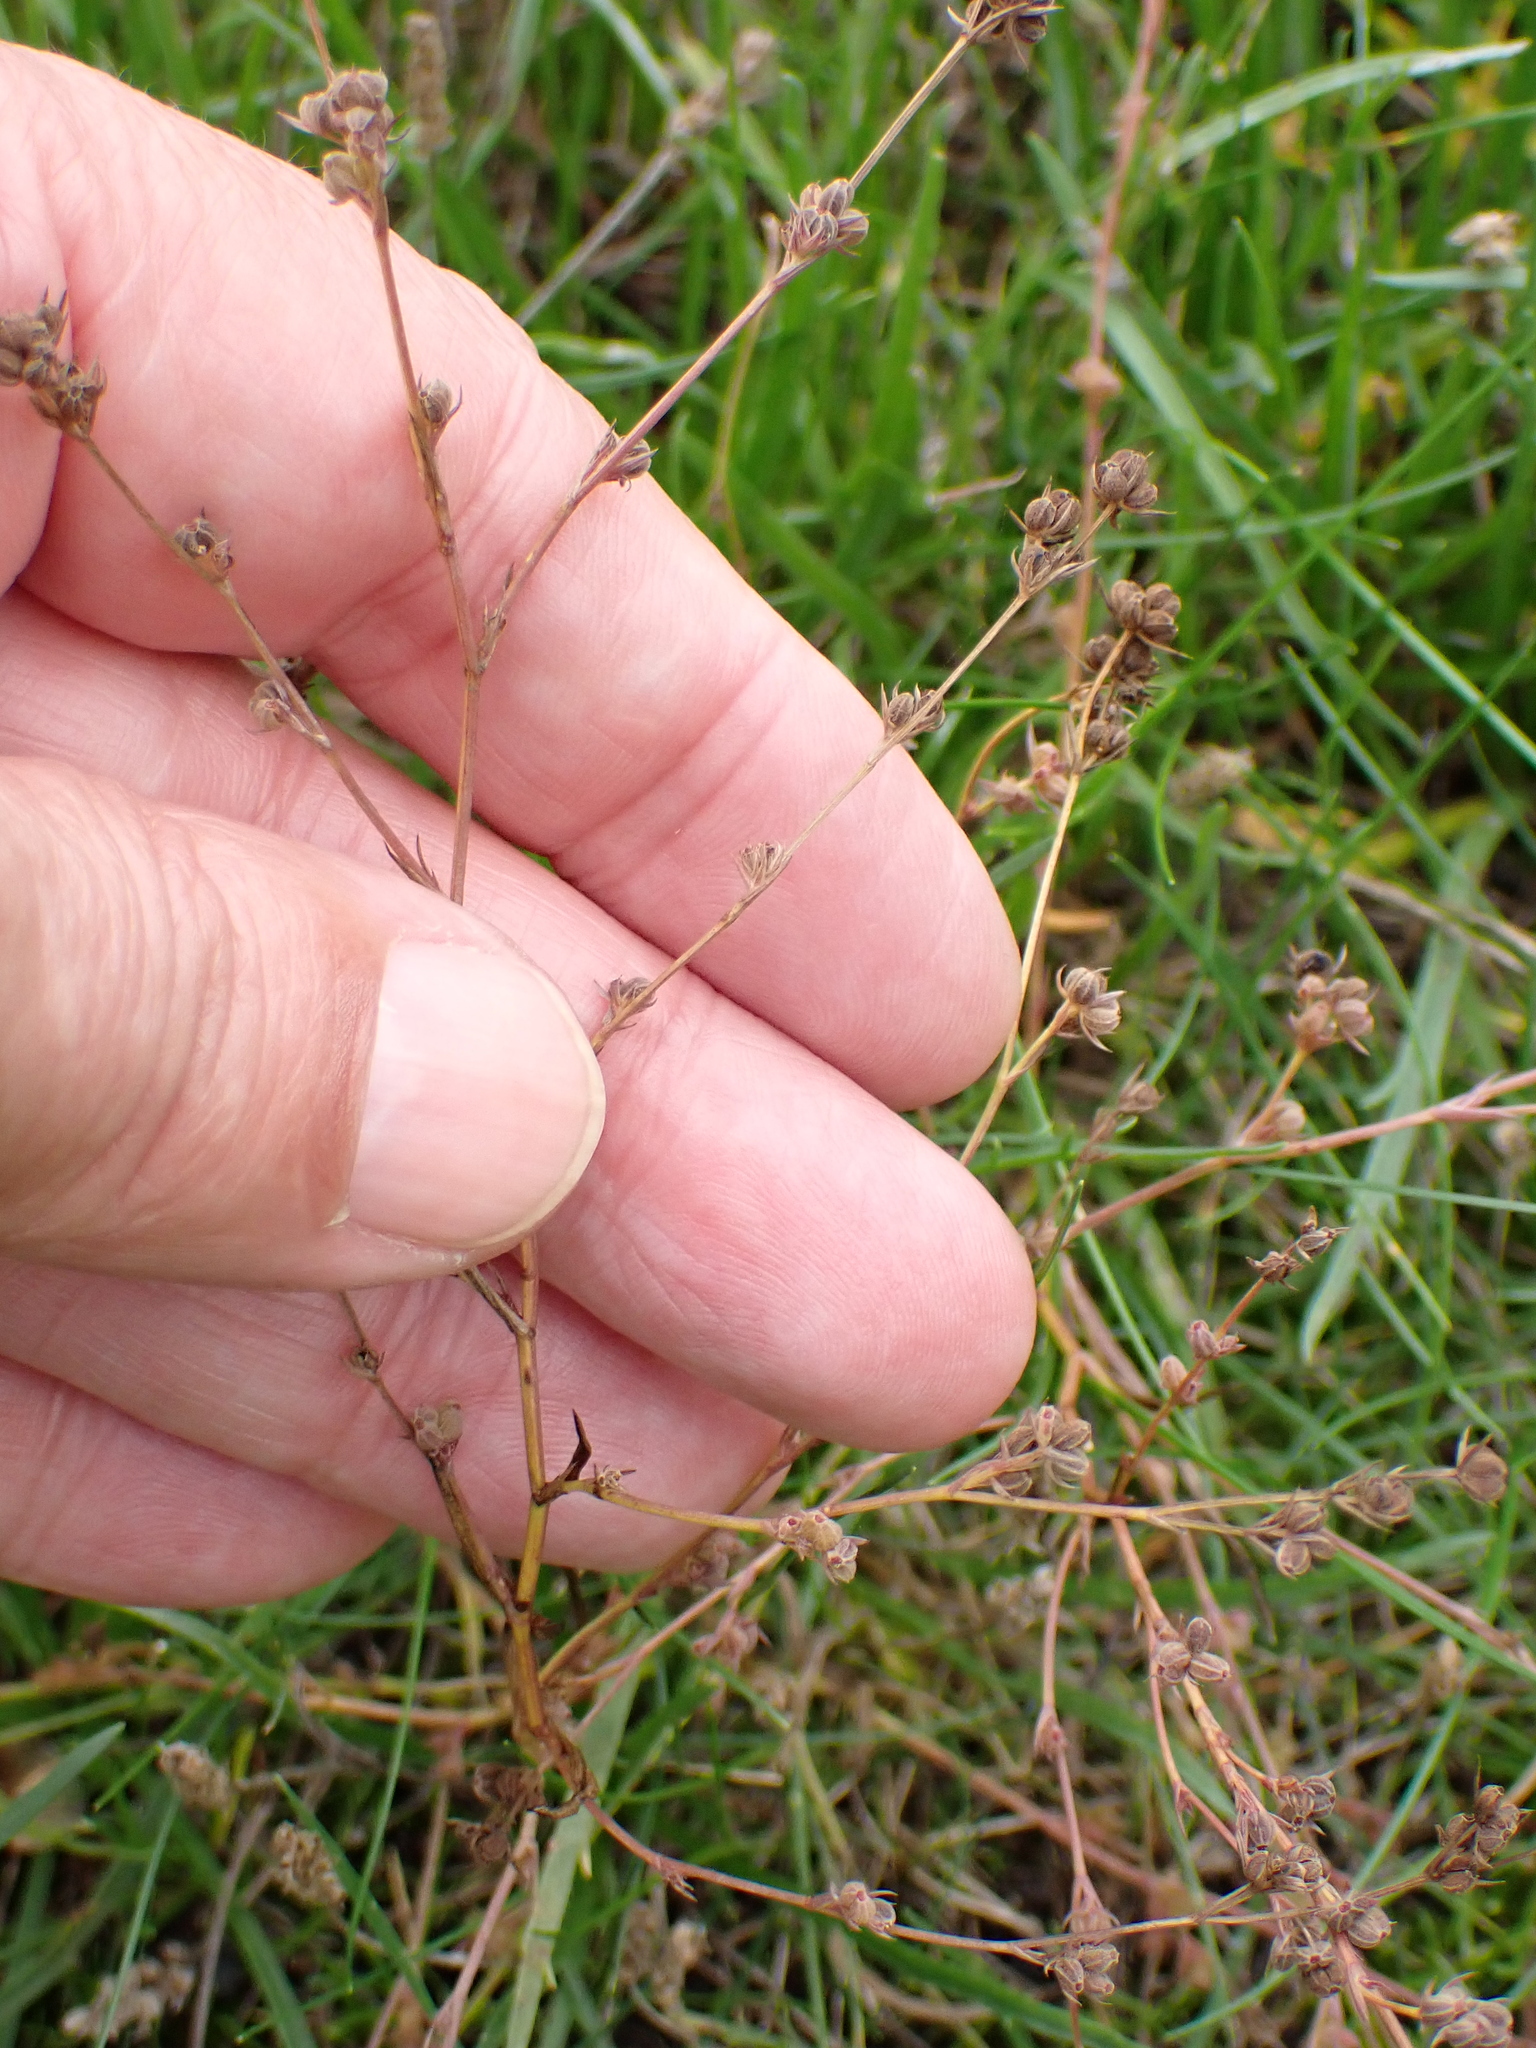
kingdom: Plantae
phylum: Tracheophyta
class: Magnoliopsida
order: Apiales
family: Apiaceae
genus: Bupleurum
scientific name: Bupleurum tenuissimum
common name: Slender hare's-ear
